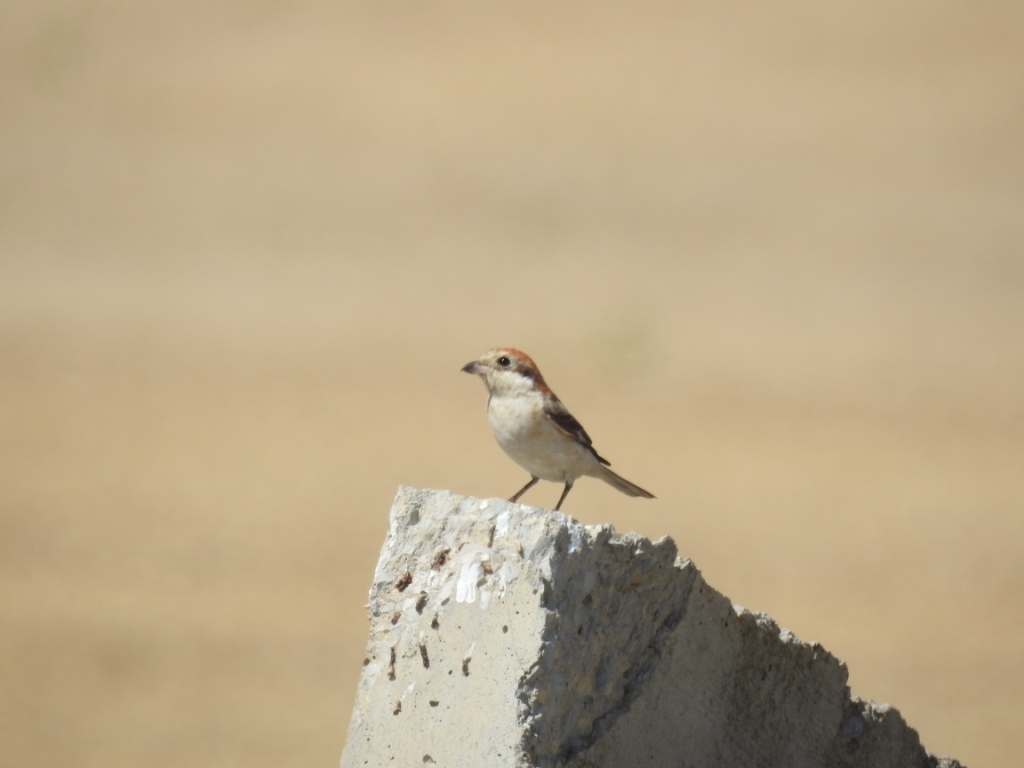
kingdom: Animalia
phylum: Chordata
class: Aves
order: Passeriformes
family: Laniidae
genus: Lanius
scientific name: Lanius senator
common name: Woodchat shrike
